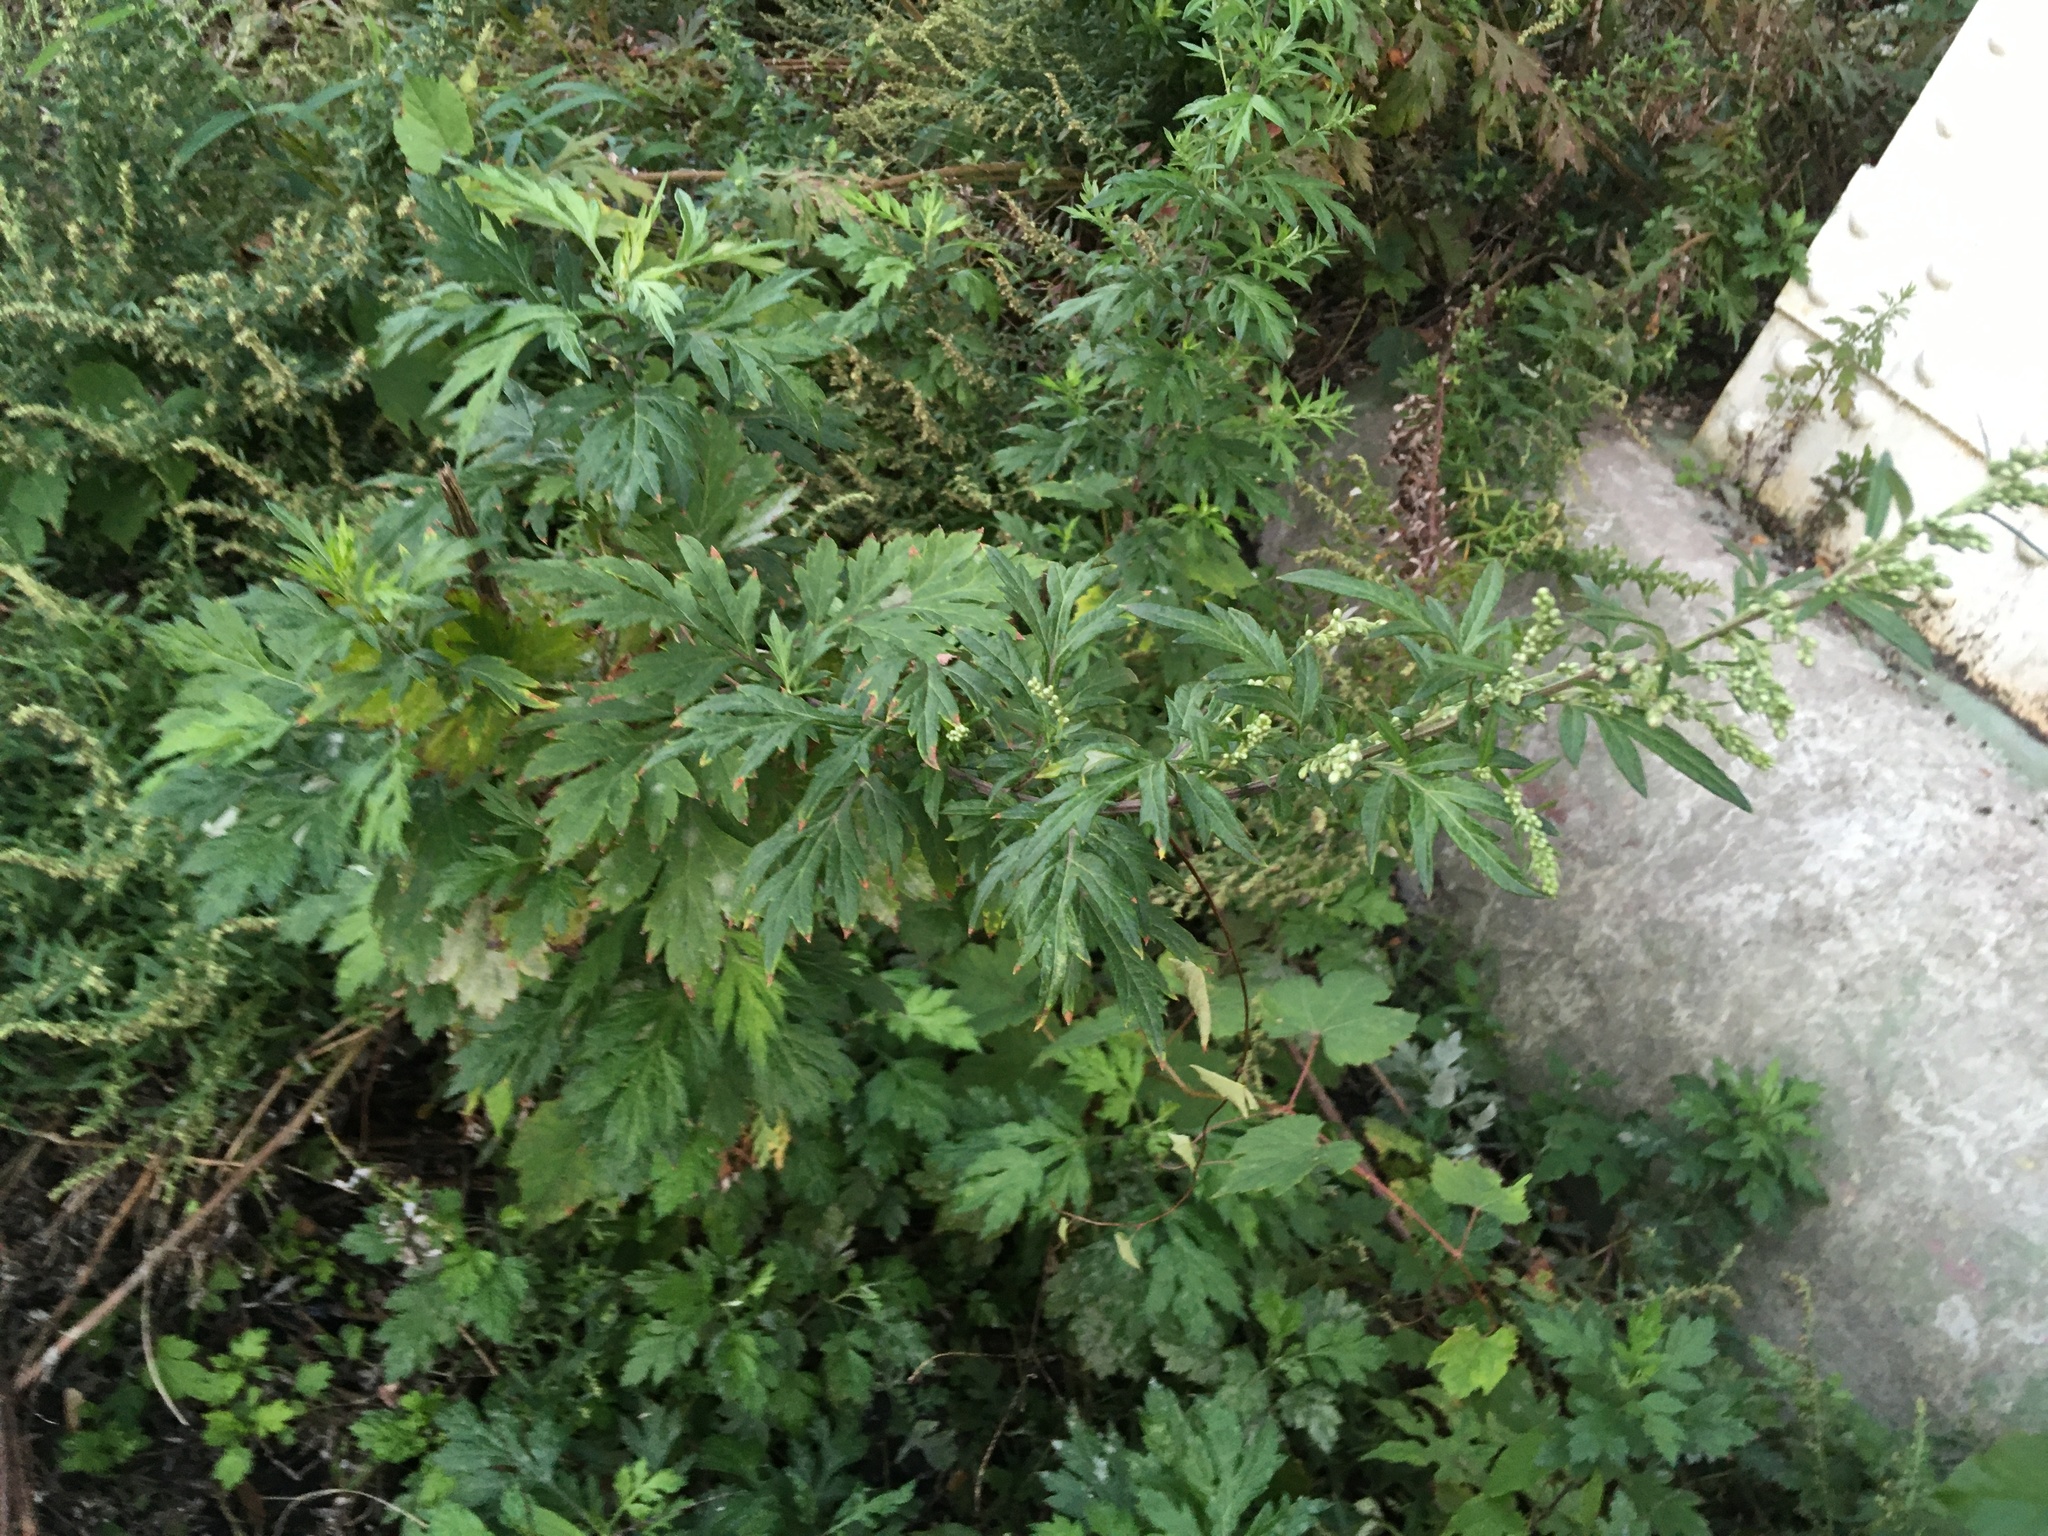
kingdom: Plantae
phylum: Tracheophyta
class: Magnoliopsida
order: Asterales
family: Asteraceae
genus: Artemisia
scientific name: Artemisia vulgaris
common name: Mugwort
